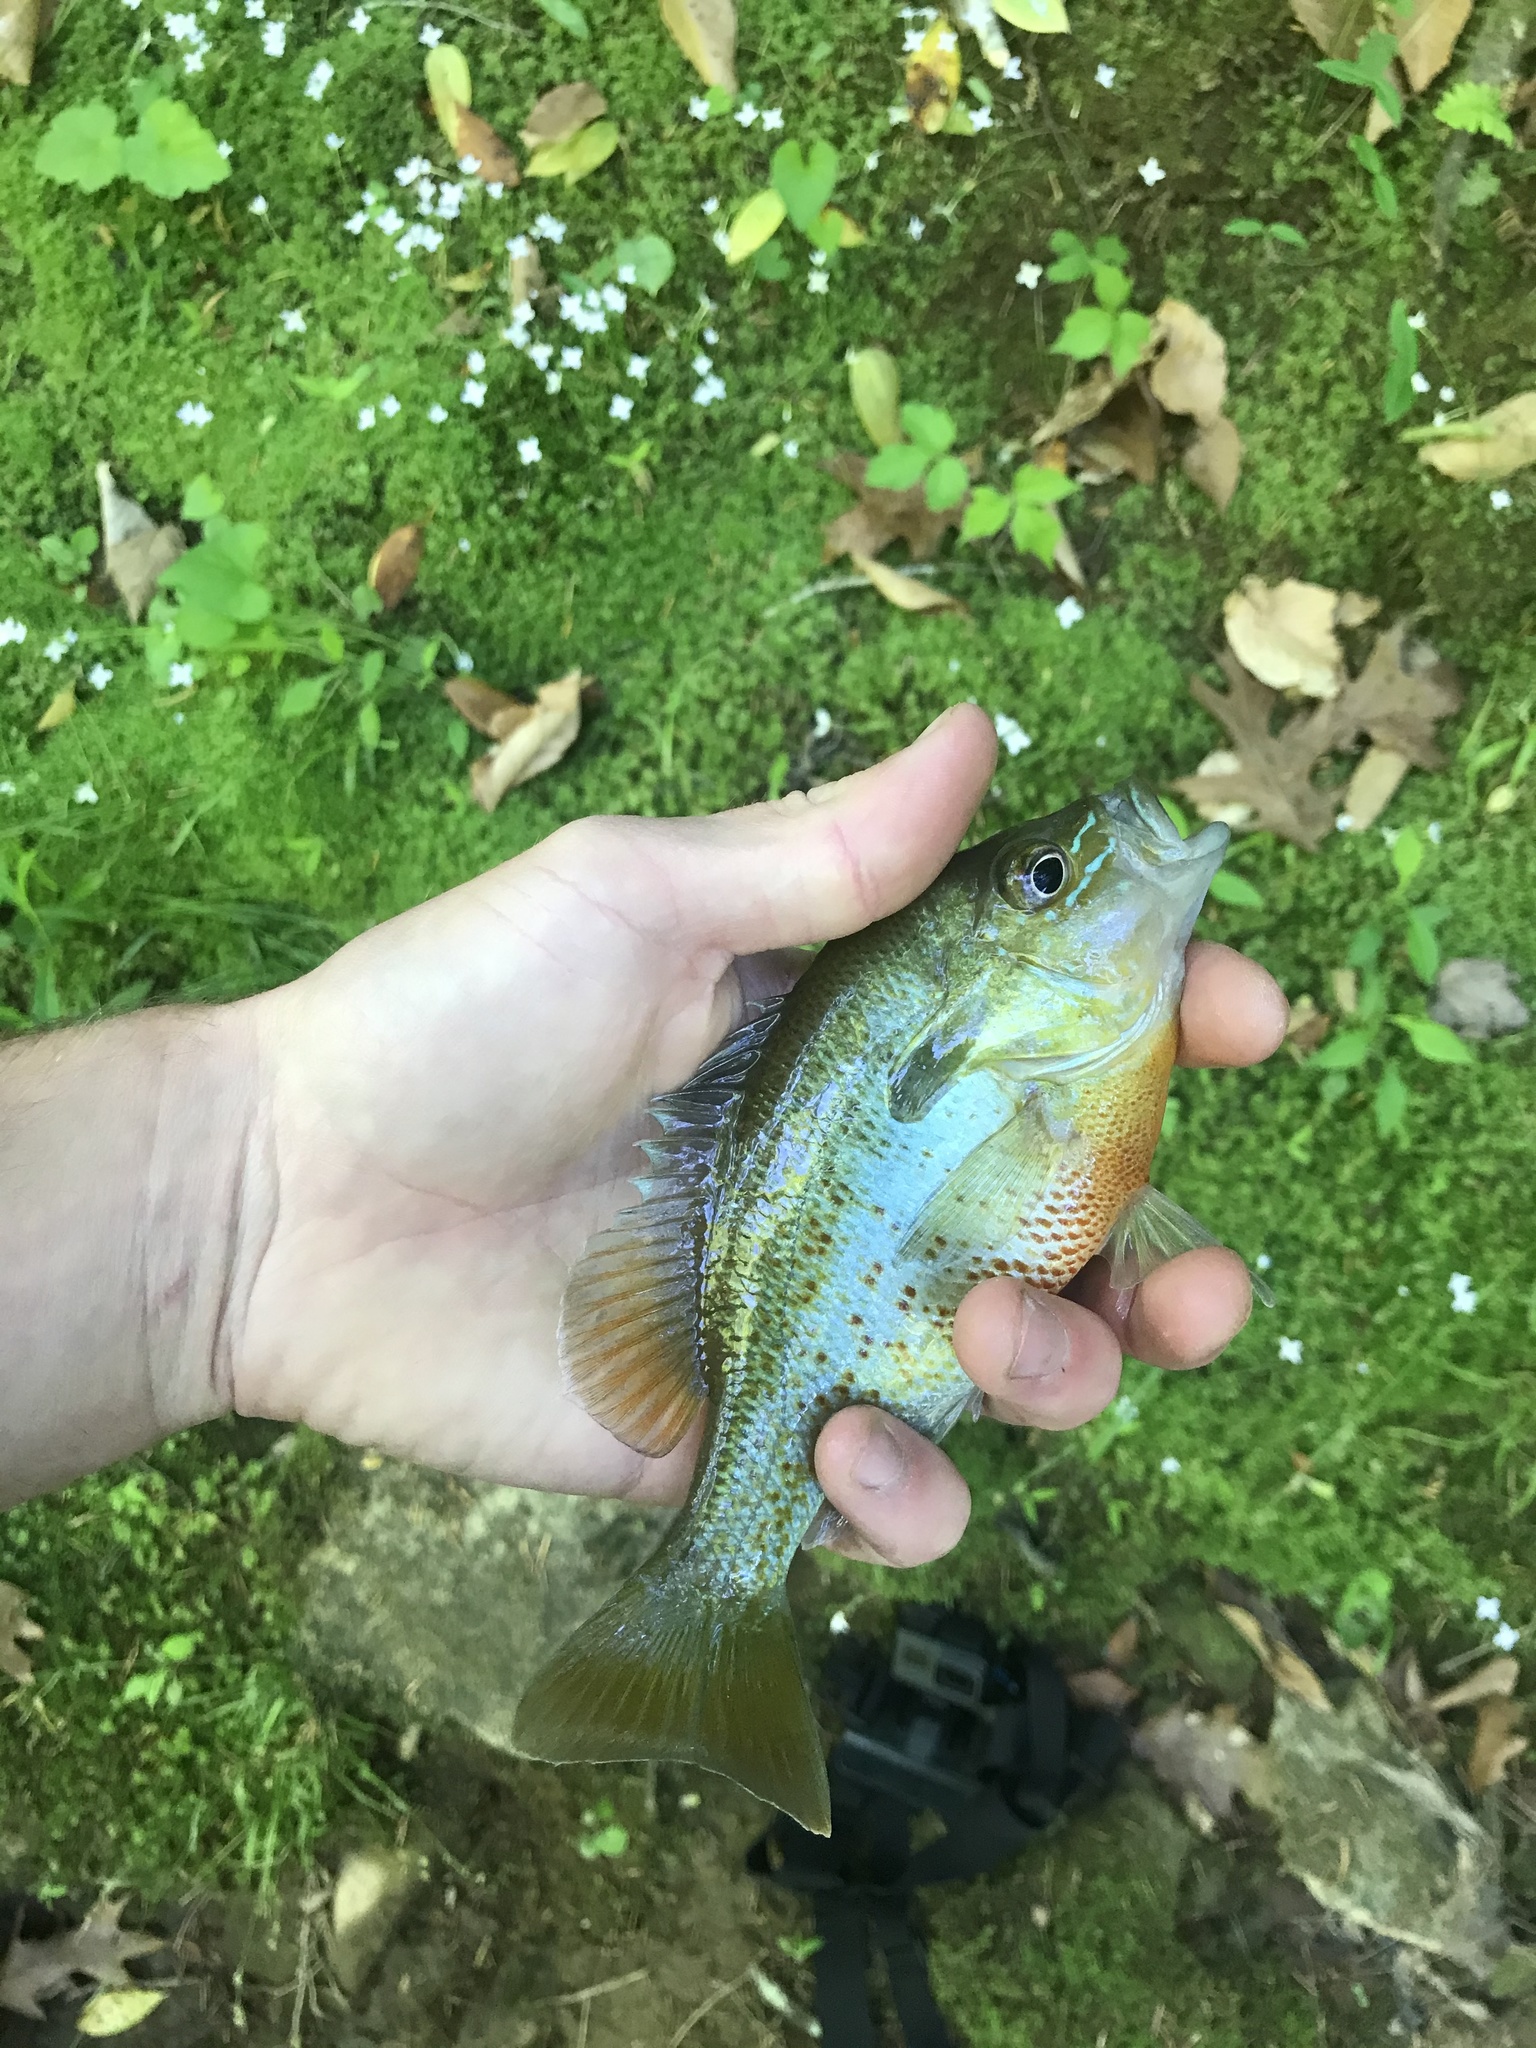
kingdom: Animalia
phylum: Chordata
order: Perciformes
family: Centrarchidae
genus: Lepomis
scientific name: Lepomis auritus
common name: Redbreast sunfish
